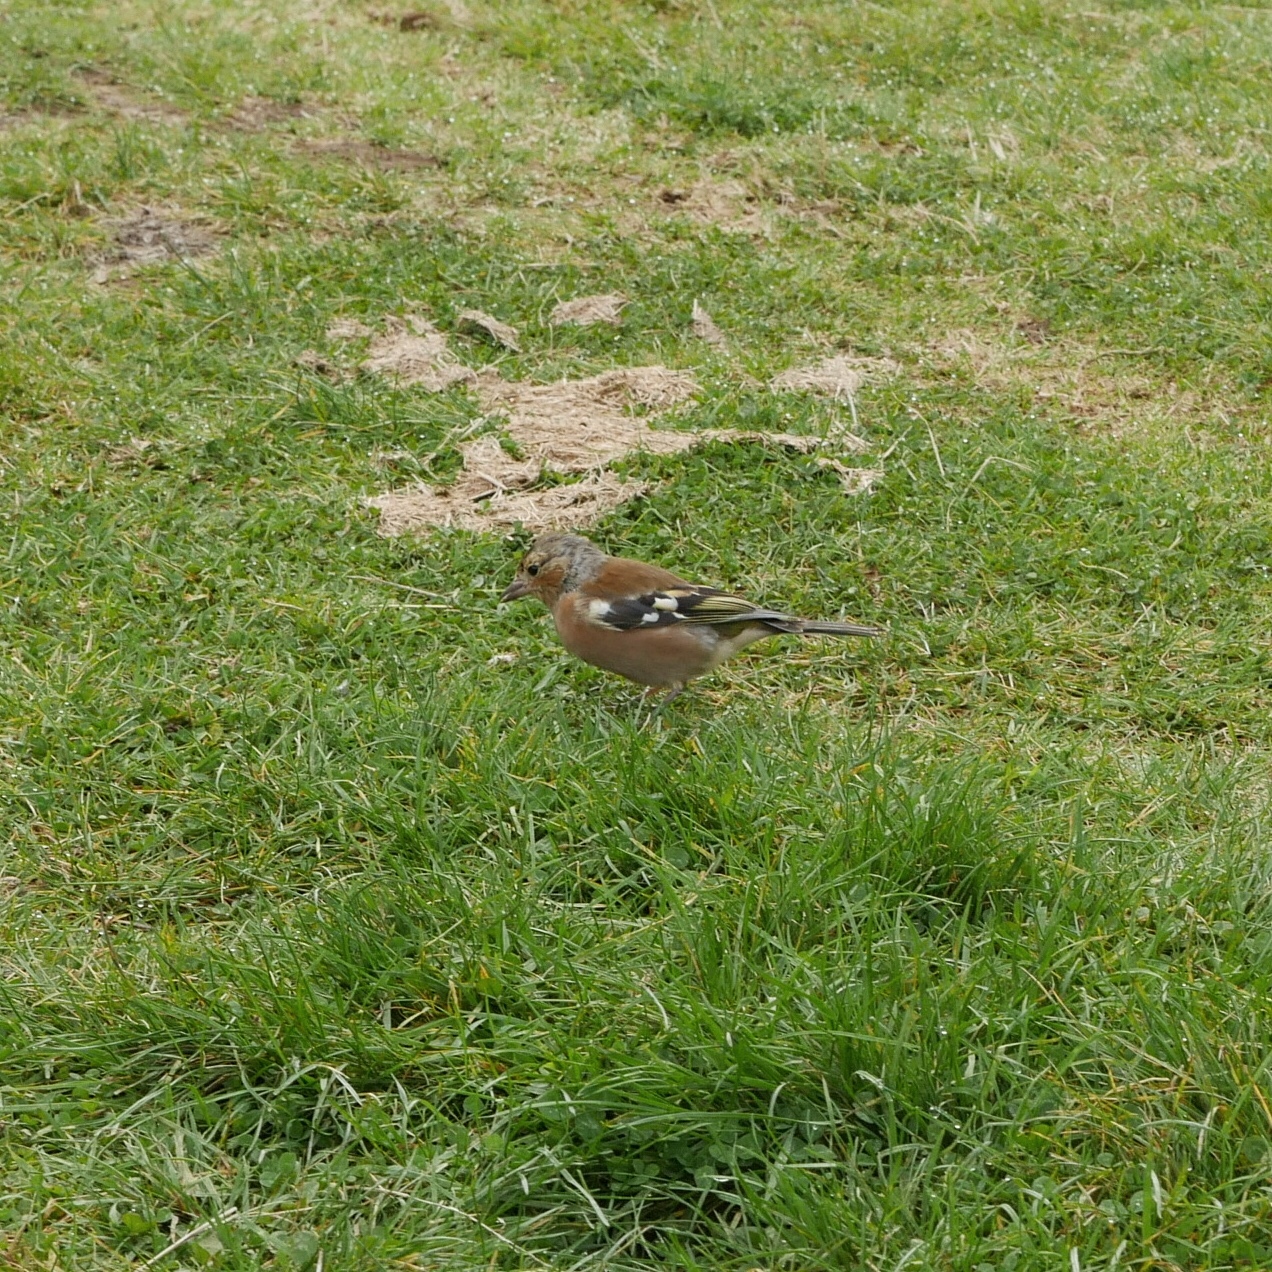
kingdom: Animalia
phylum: Chordata
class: Aves
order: Passeriformes
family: Fringillidae
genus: Fringilla
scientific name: Fringilla coelebs
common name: Common chaffinch
